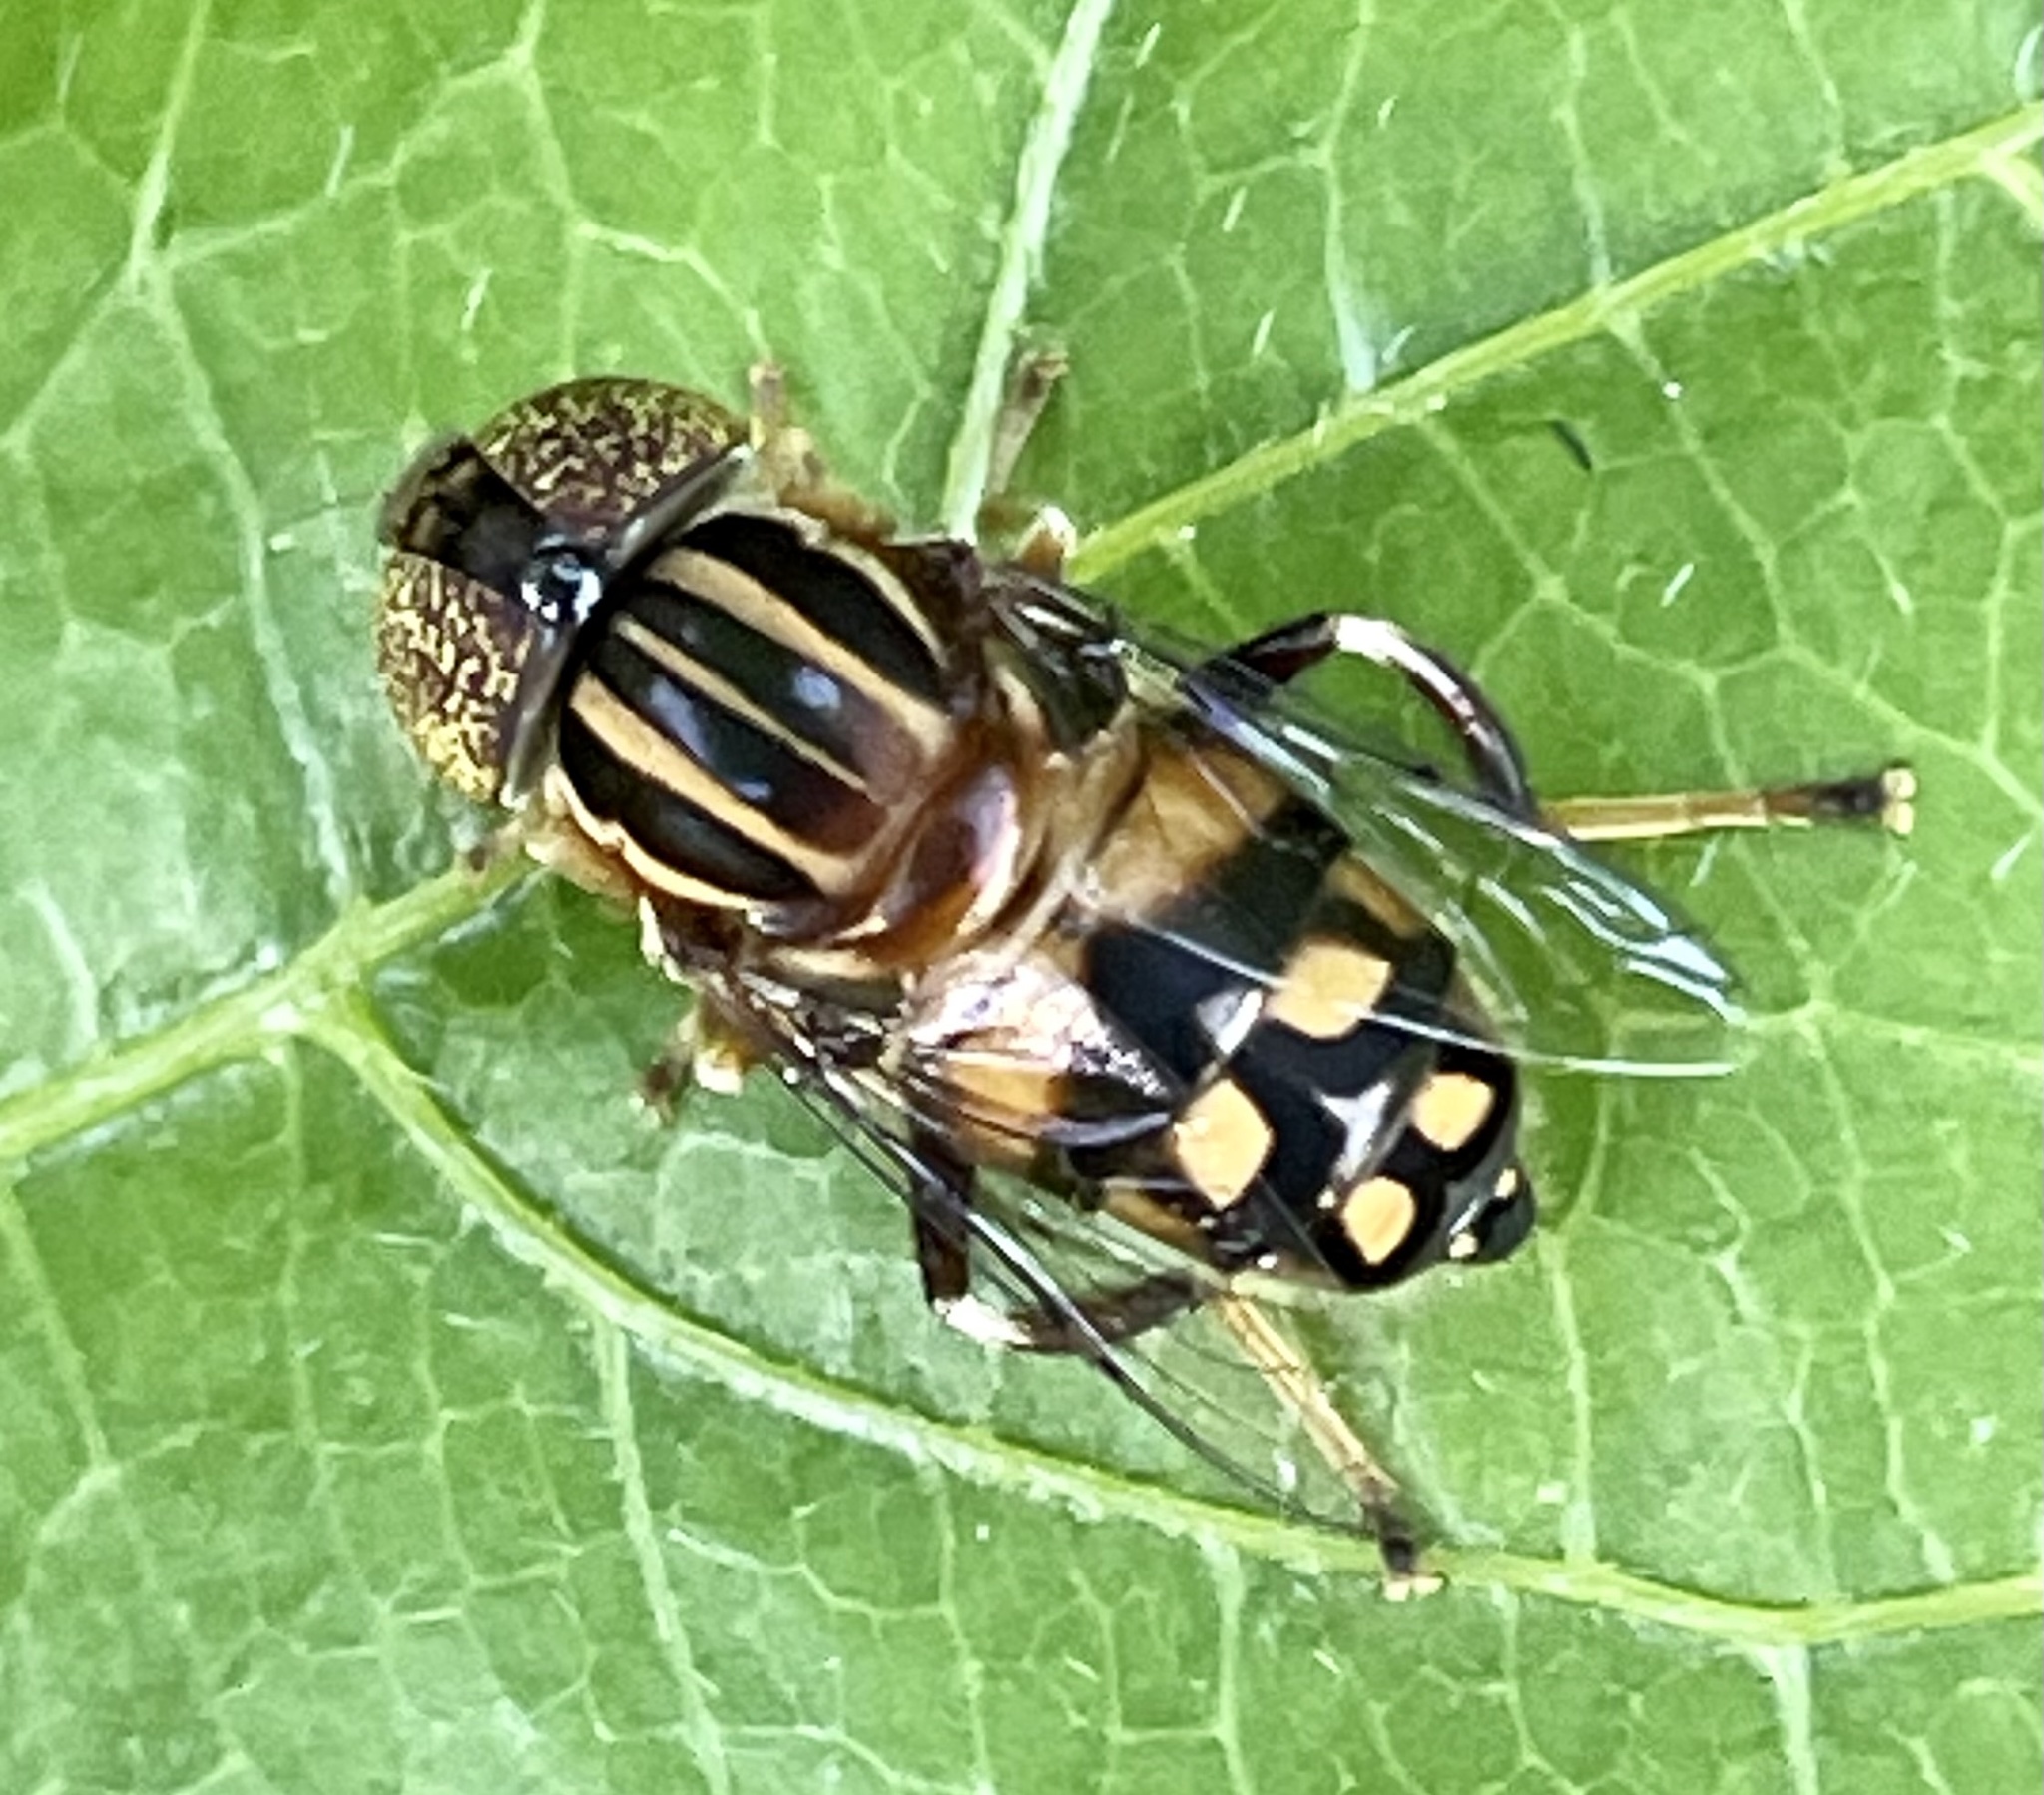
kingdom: Animalia
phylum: Arthropoda
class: Insecta
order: Diptera
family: Syrphidae
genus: Eristalinus
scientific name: Eristalinus punctulatus
